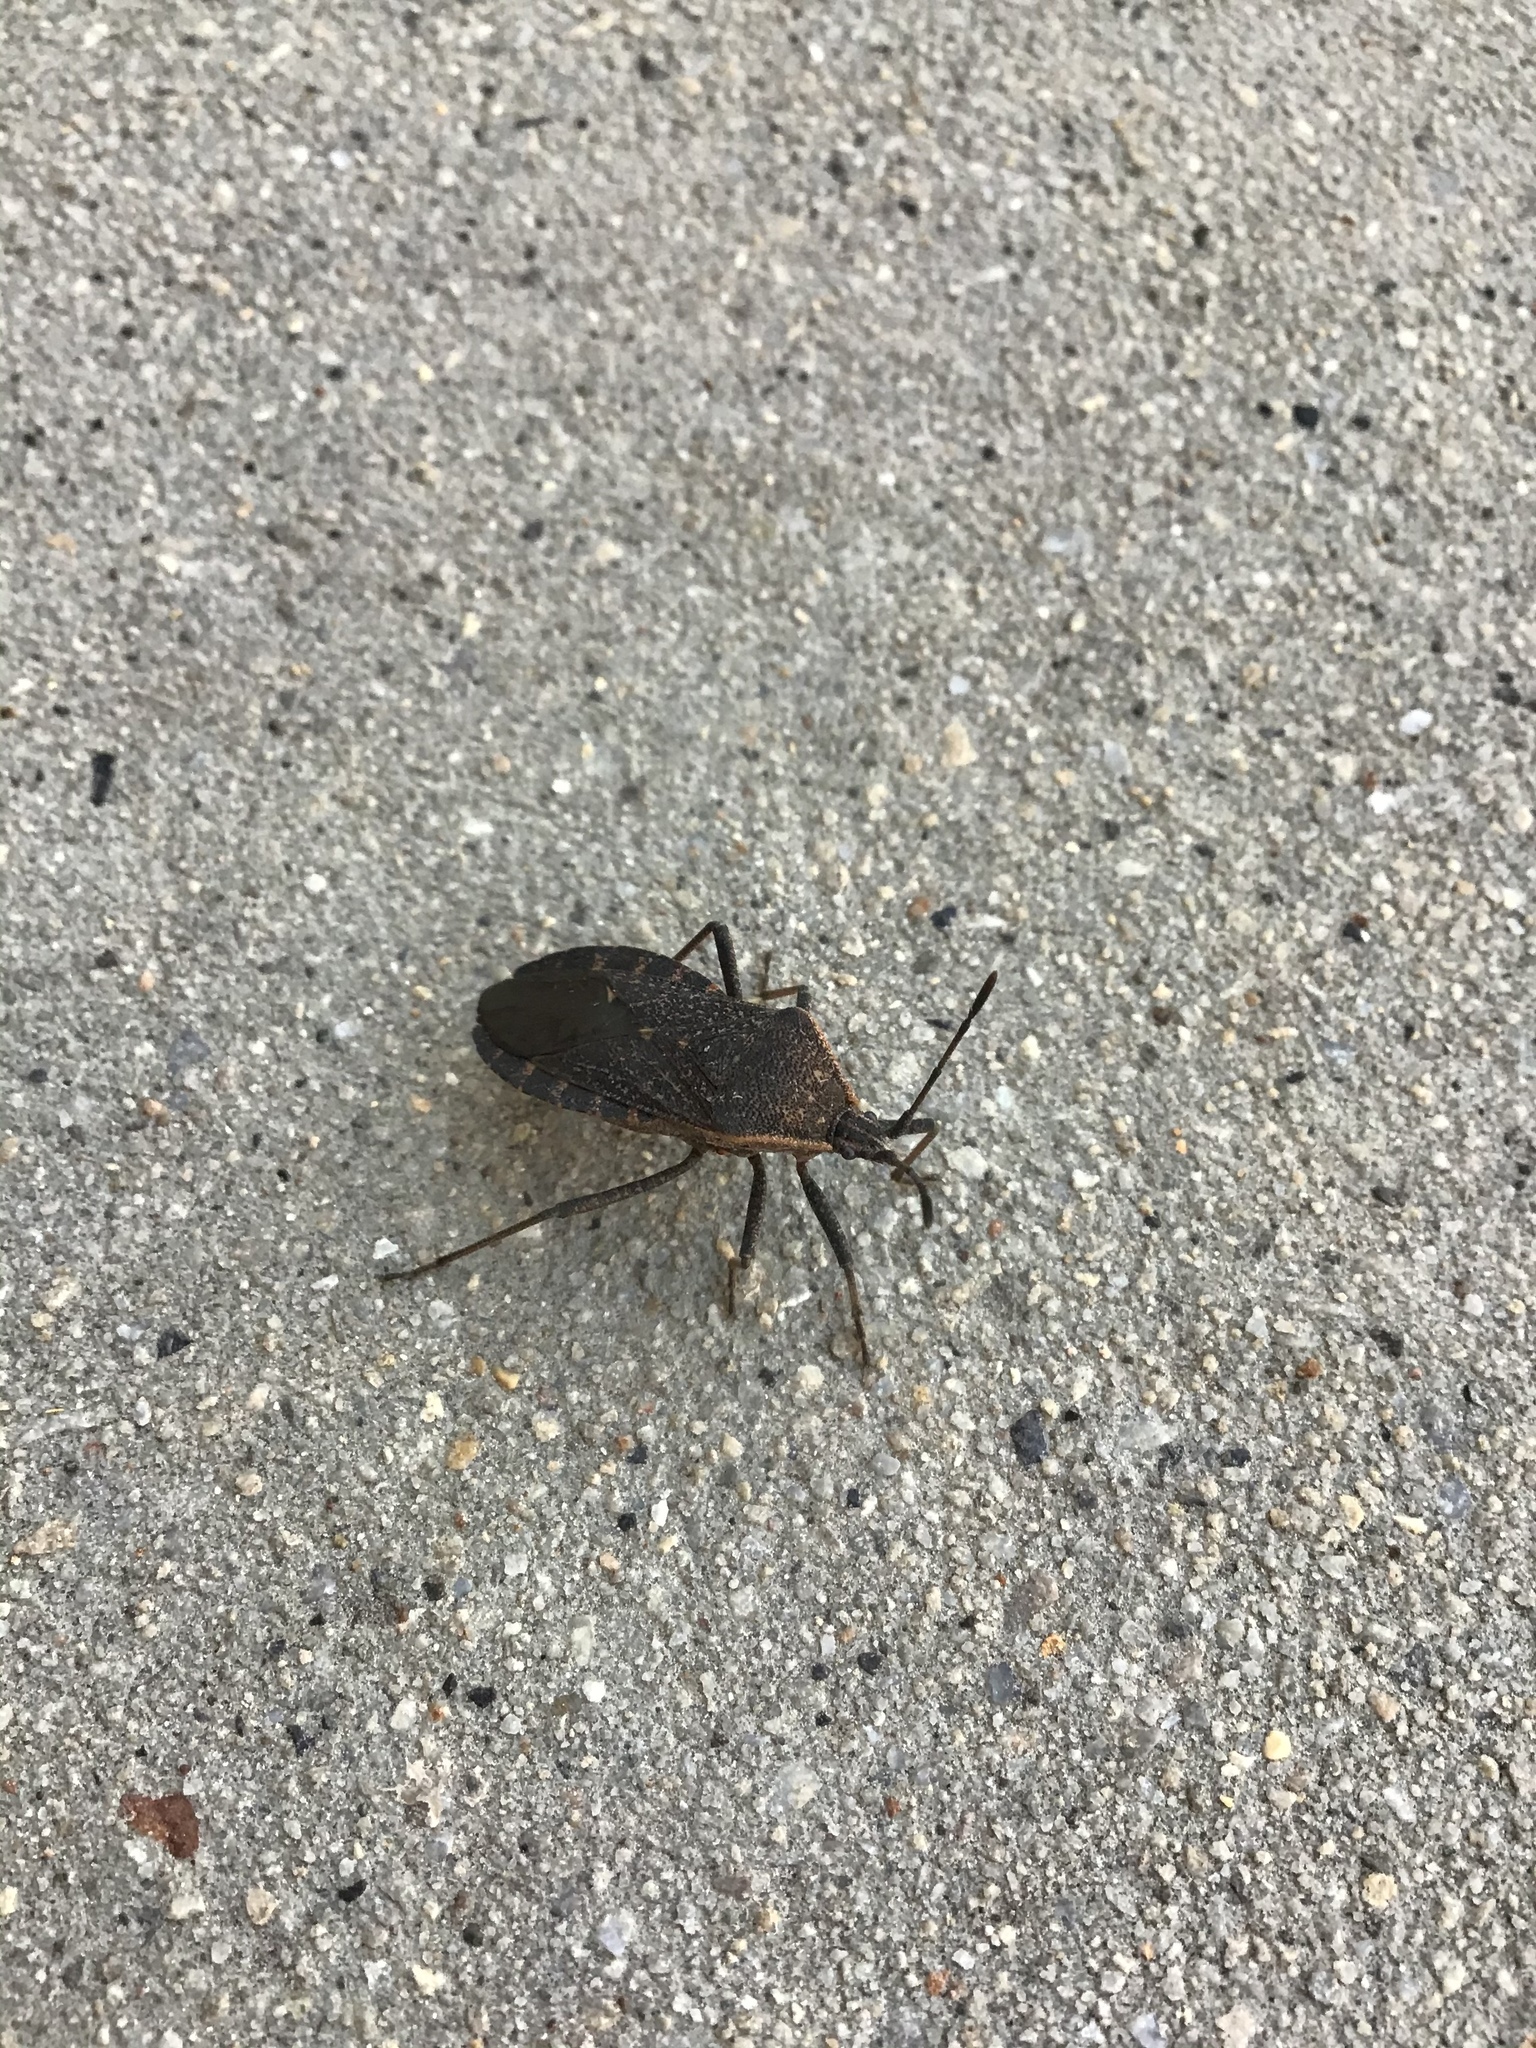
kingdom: Animalia
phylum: Arthropoda
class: Insecta
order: Hemiptera
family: Coreidae
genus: Anasa
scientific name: Anasa tristis
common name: Squash bug
